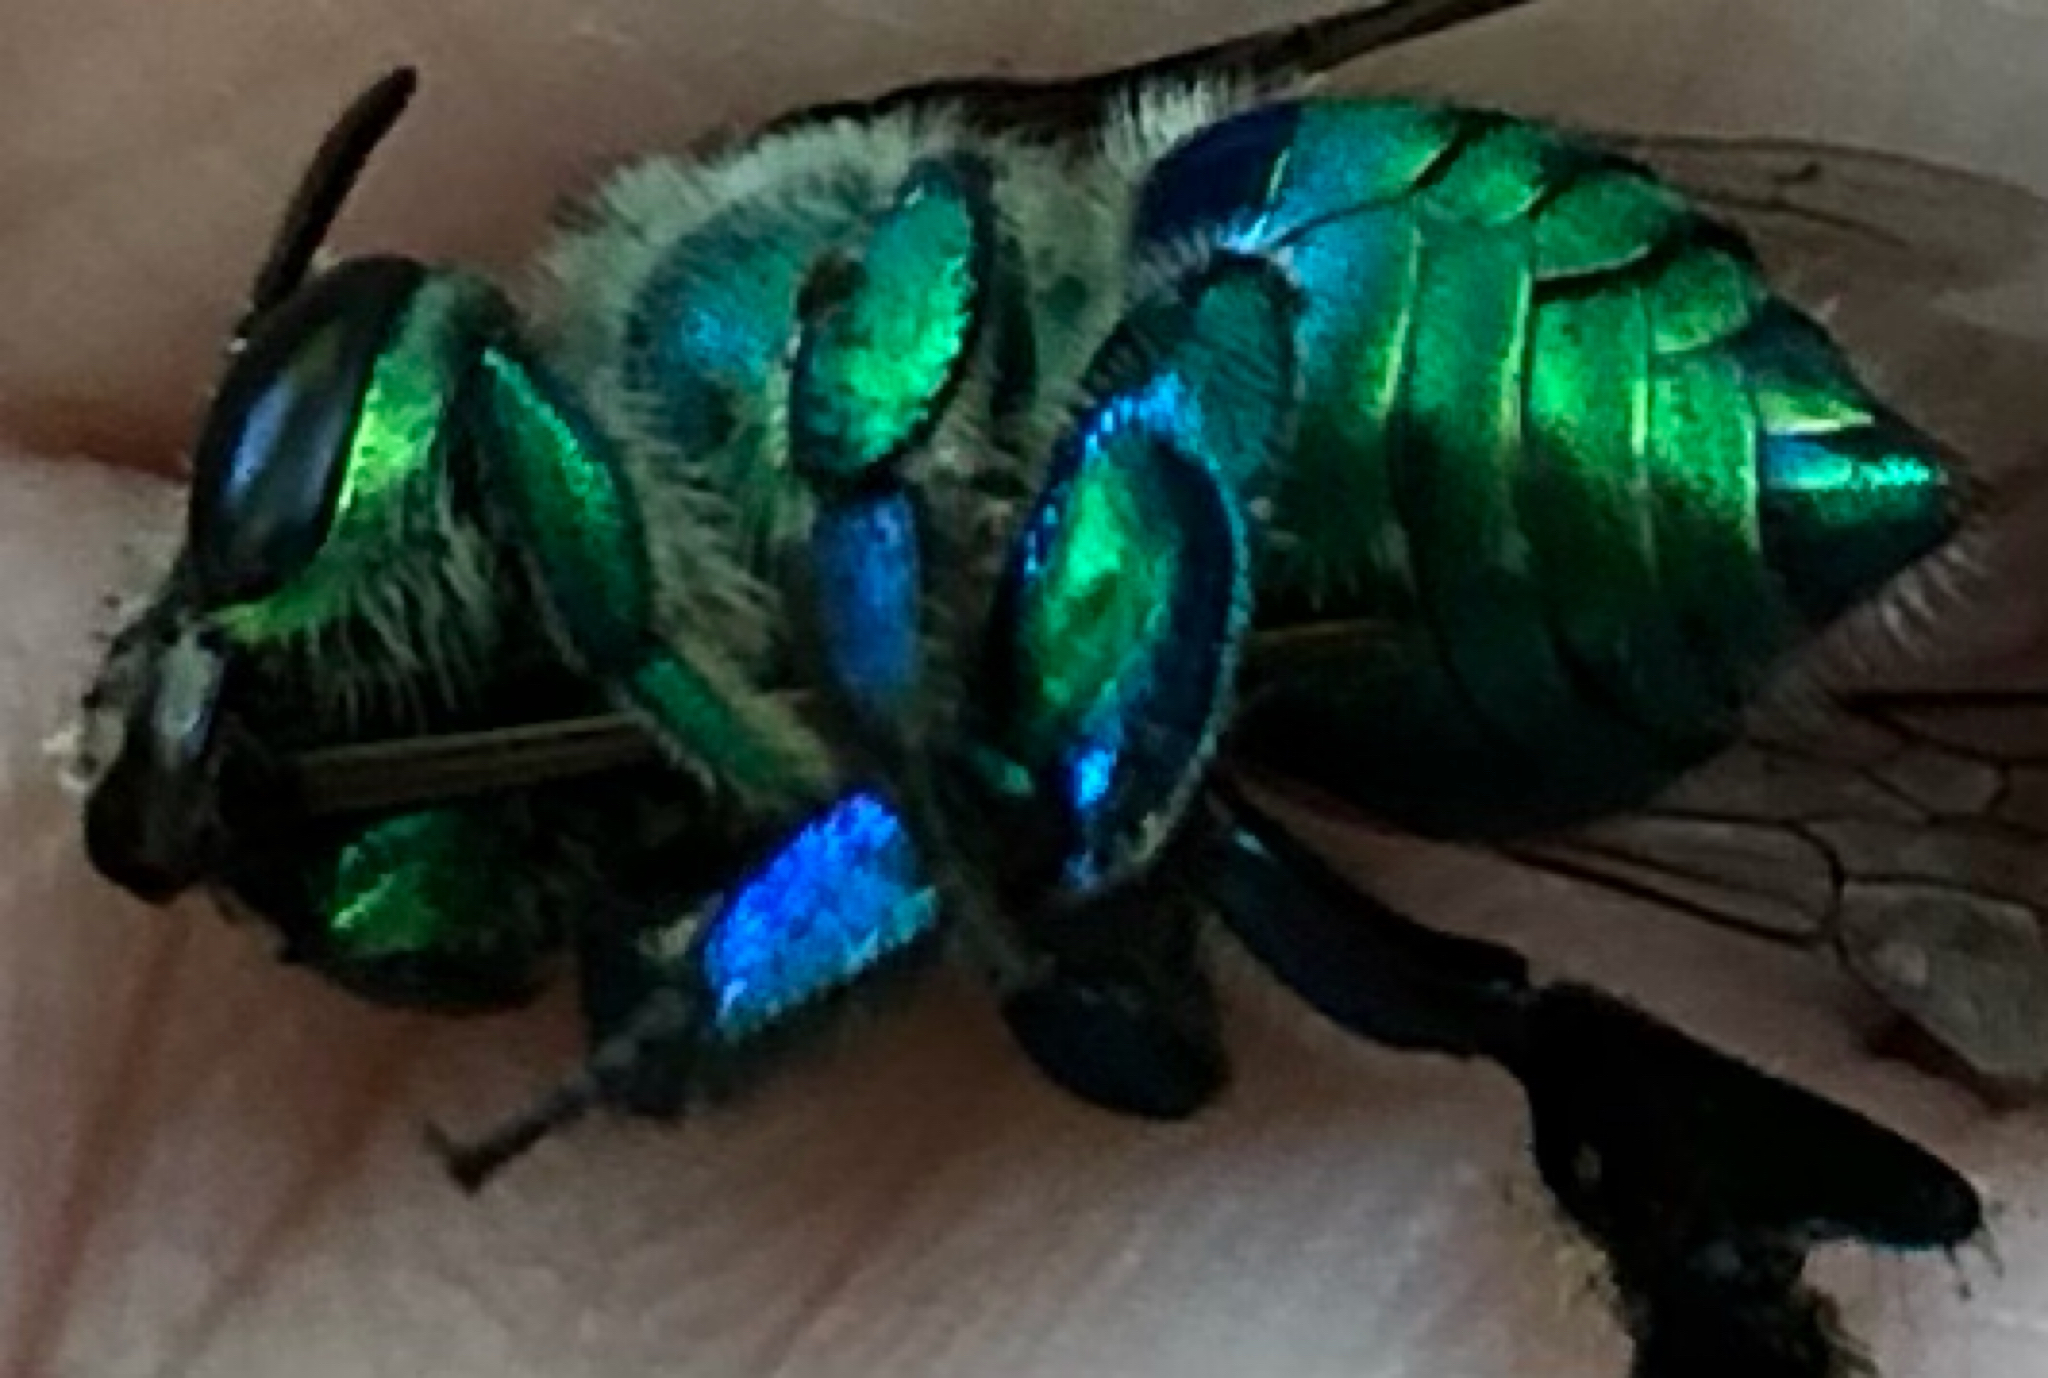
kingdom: Animalia
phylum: Arthropoda
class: Insecta
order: Hymenoptera
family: Apidae
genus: Euglossa
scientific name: Euglossa dilemma
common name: Green orchid bee
